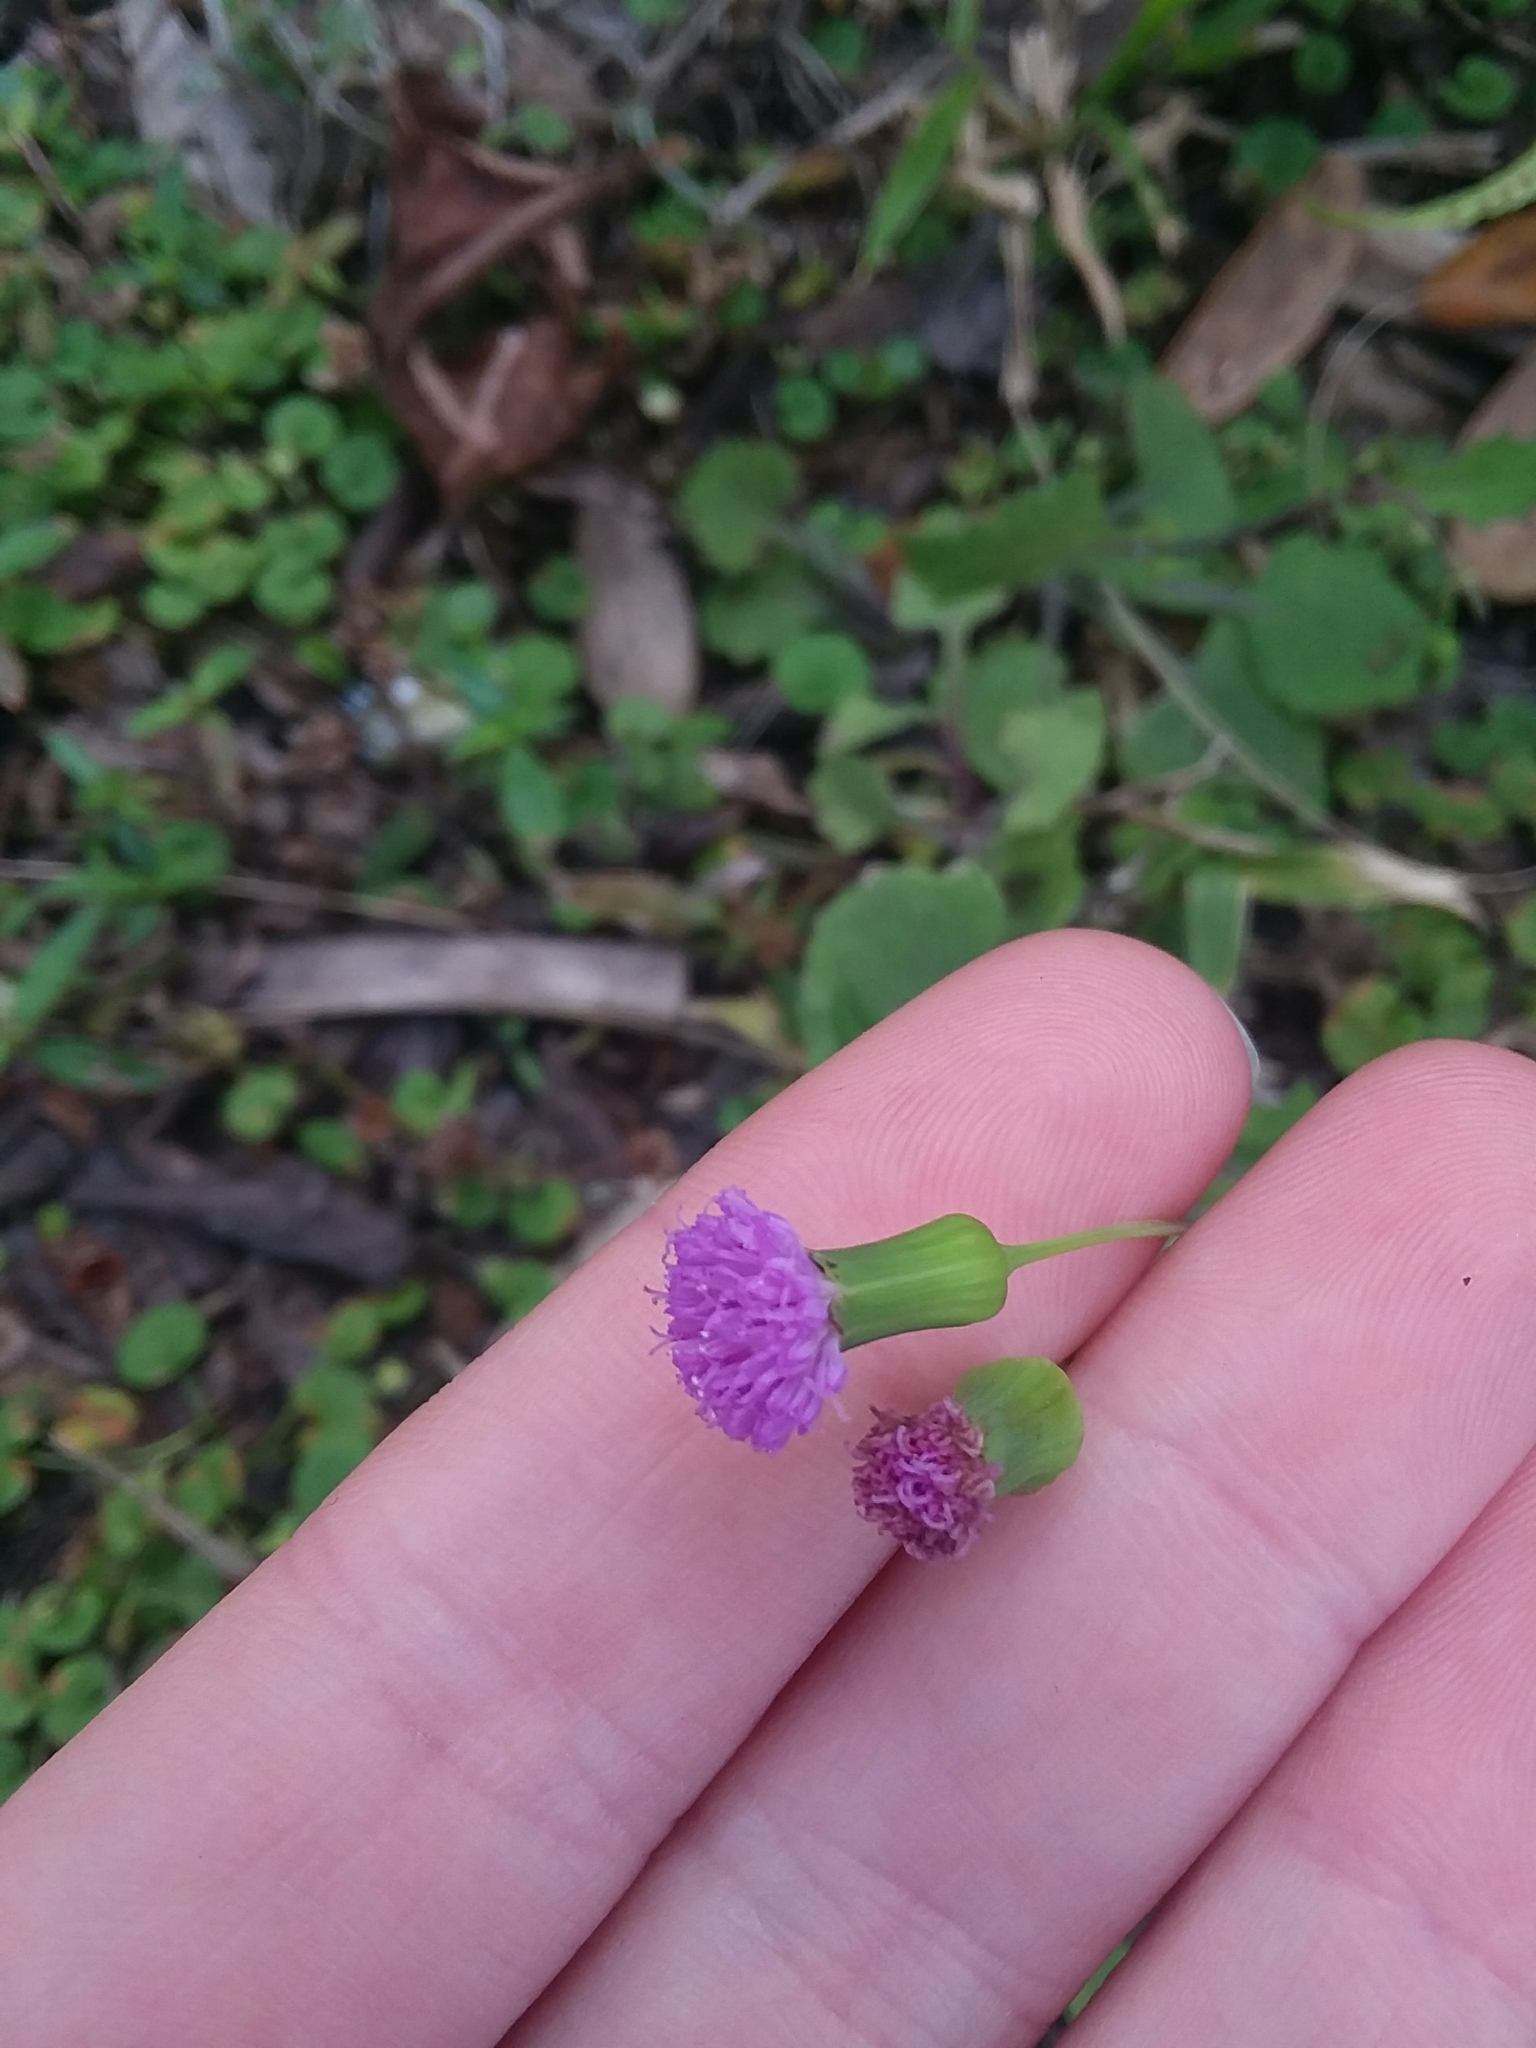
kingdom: Plantae
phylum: Tracheophyta
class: Magnoliopsida
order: Asterales
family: Asteraceae
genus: Emilia
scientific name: Emilia sonchifolia
